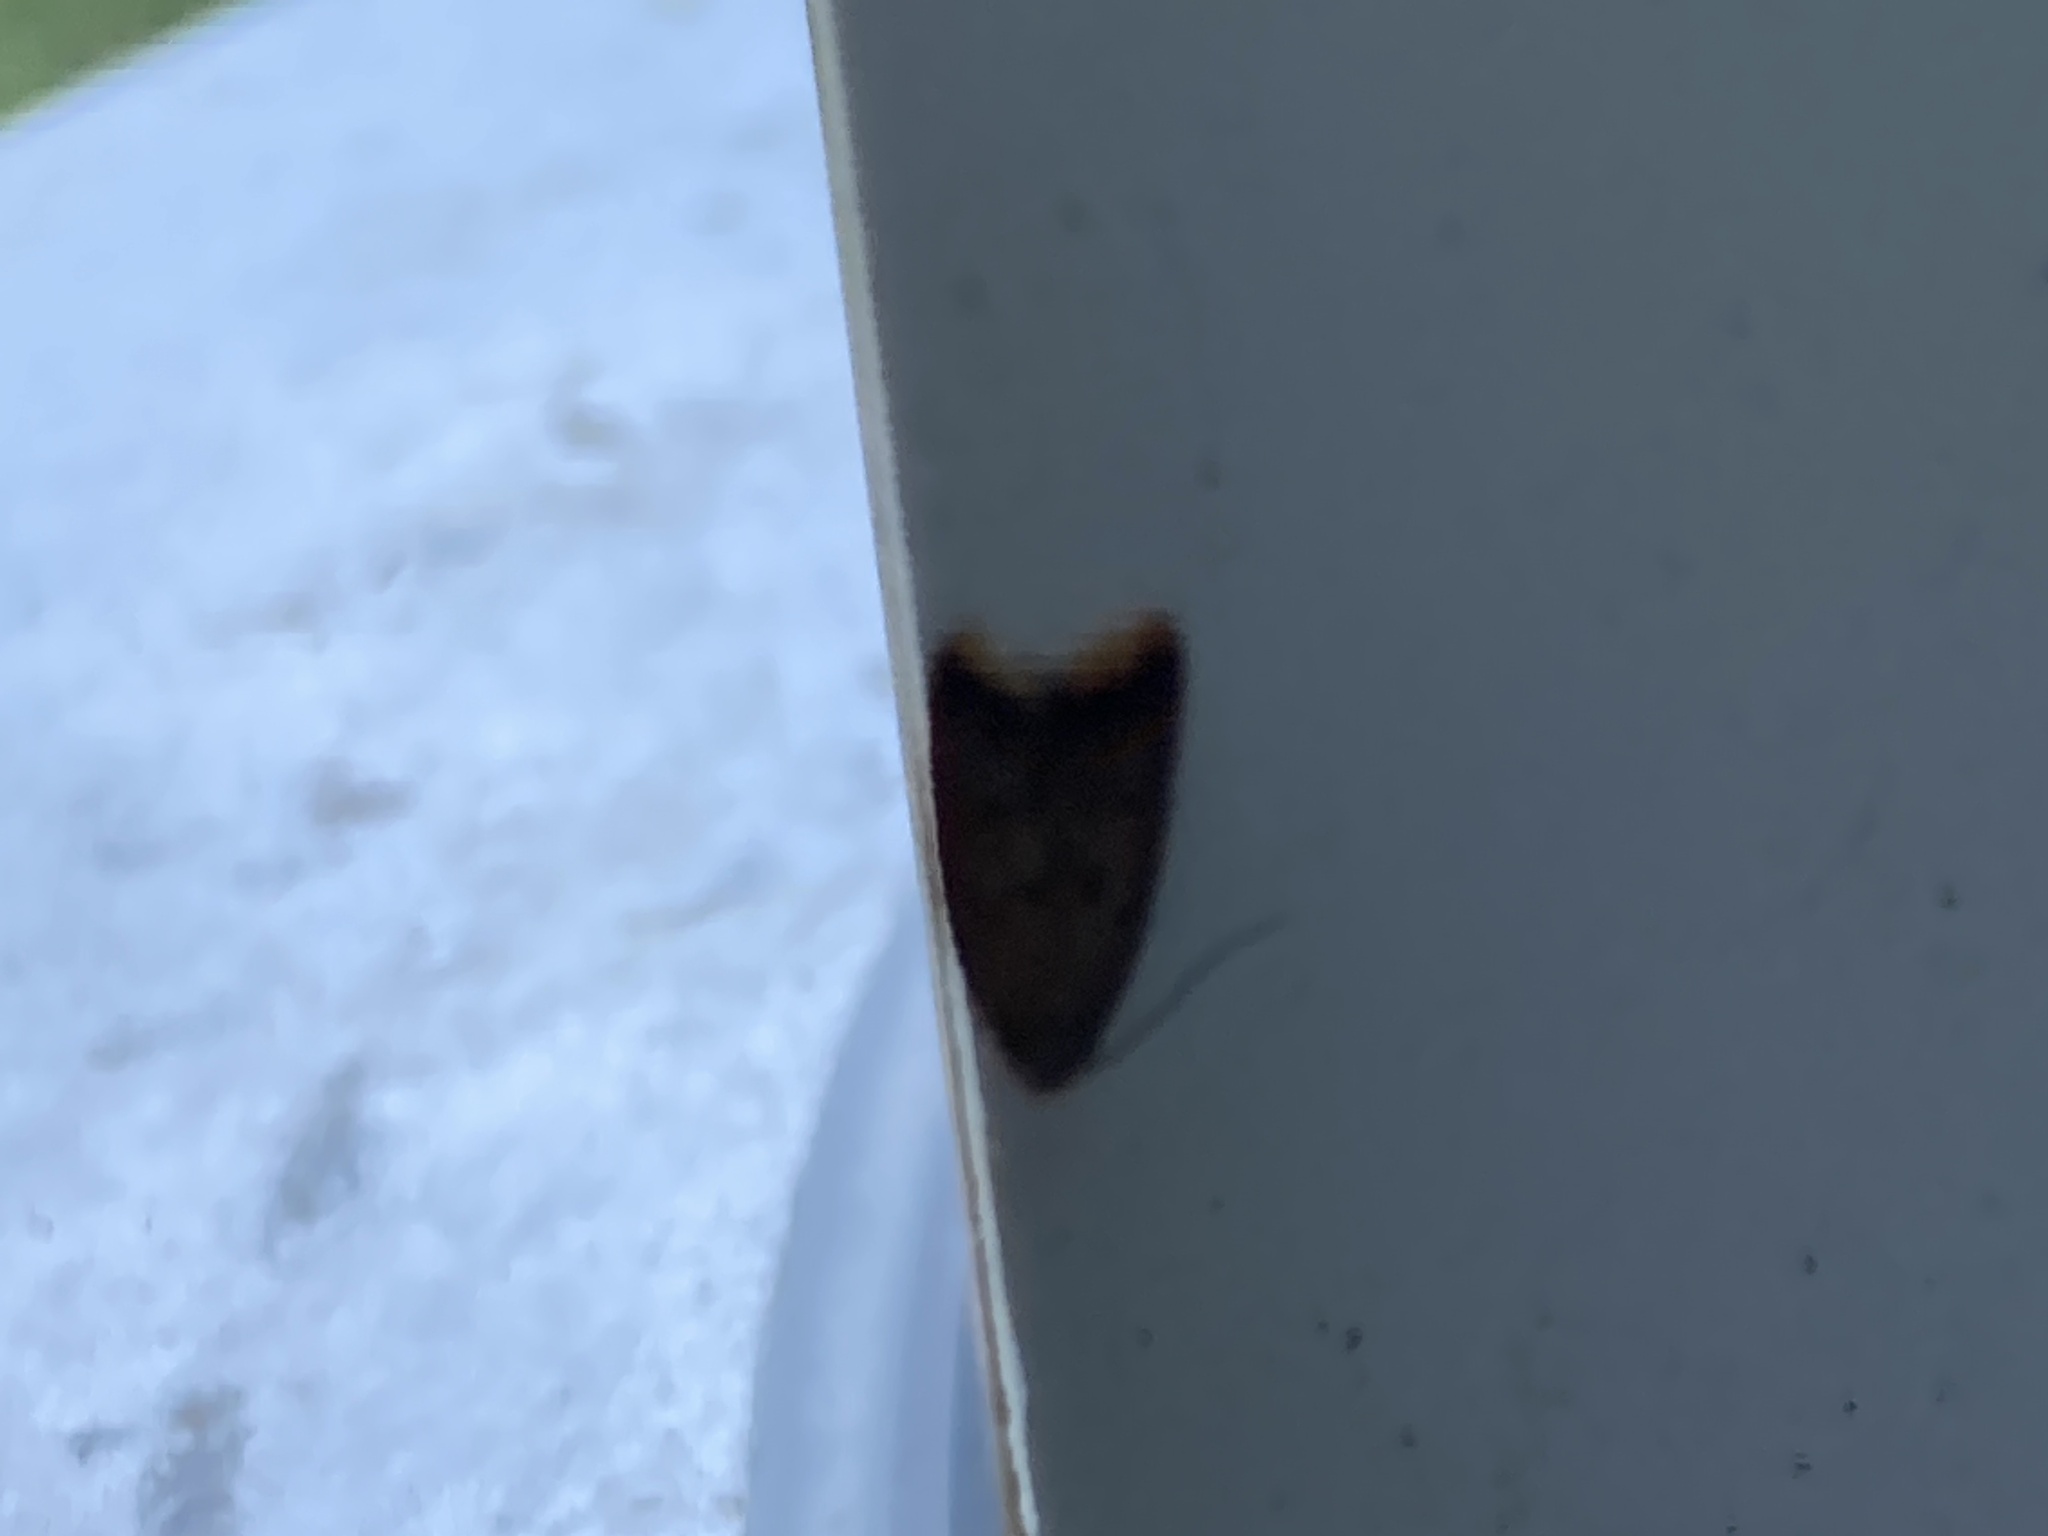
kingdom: Animalia
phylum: Arthropoda
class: Insecta
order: Lepidoptera
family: Oecophoridae
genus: Tachystola
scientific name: Tachystola acroxantha
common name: Ruddy streak
